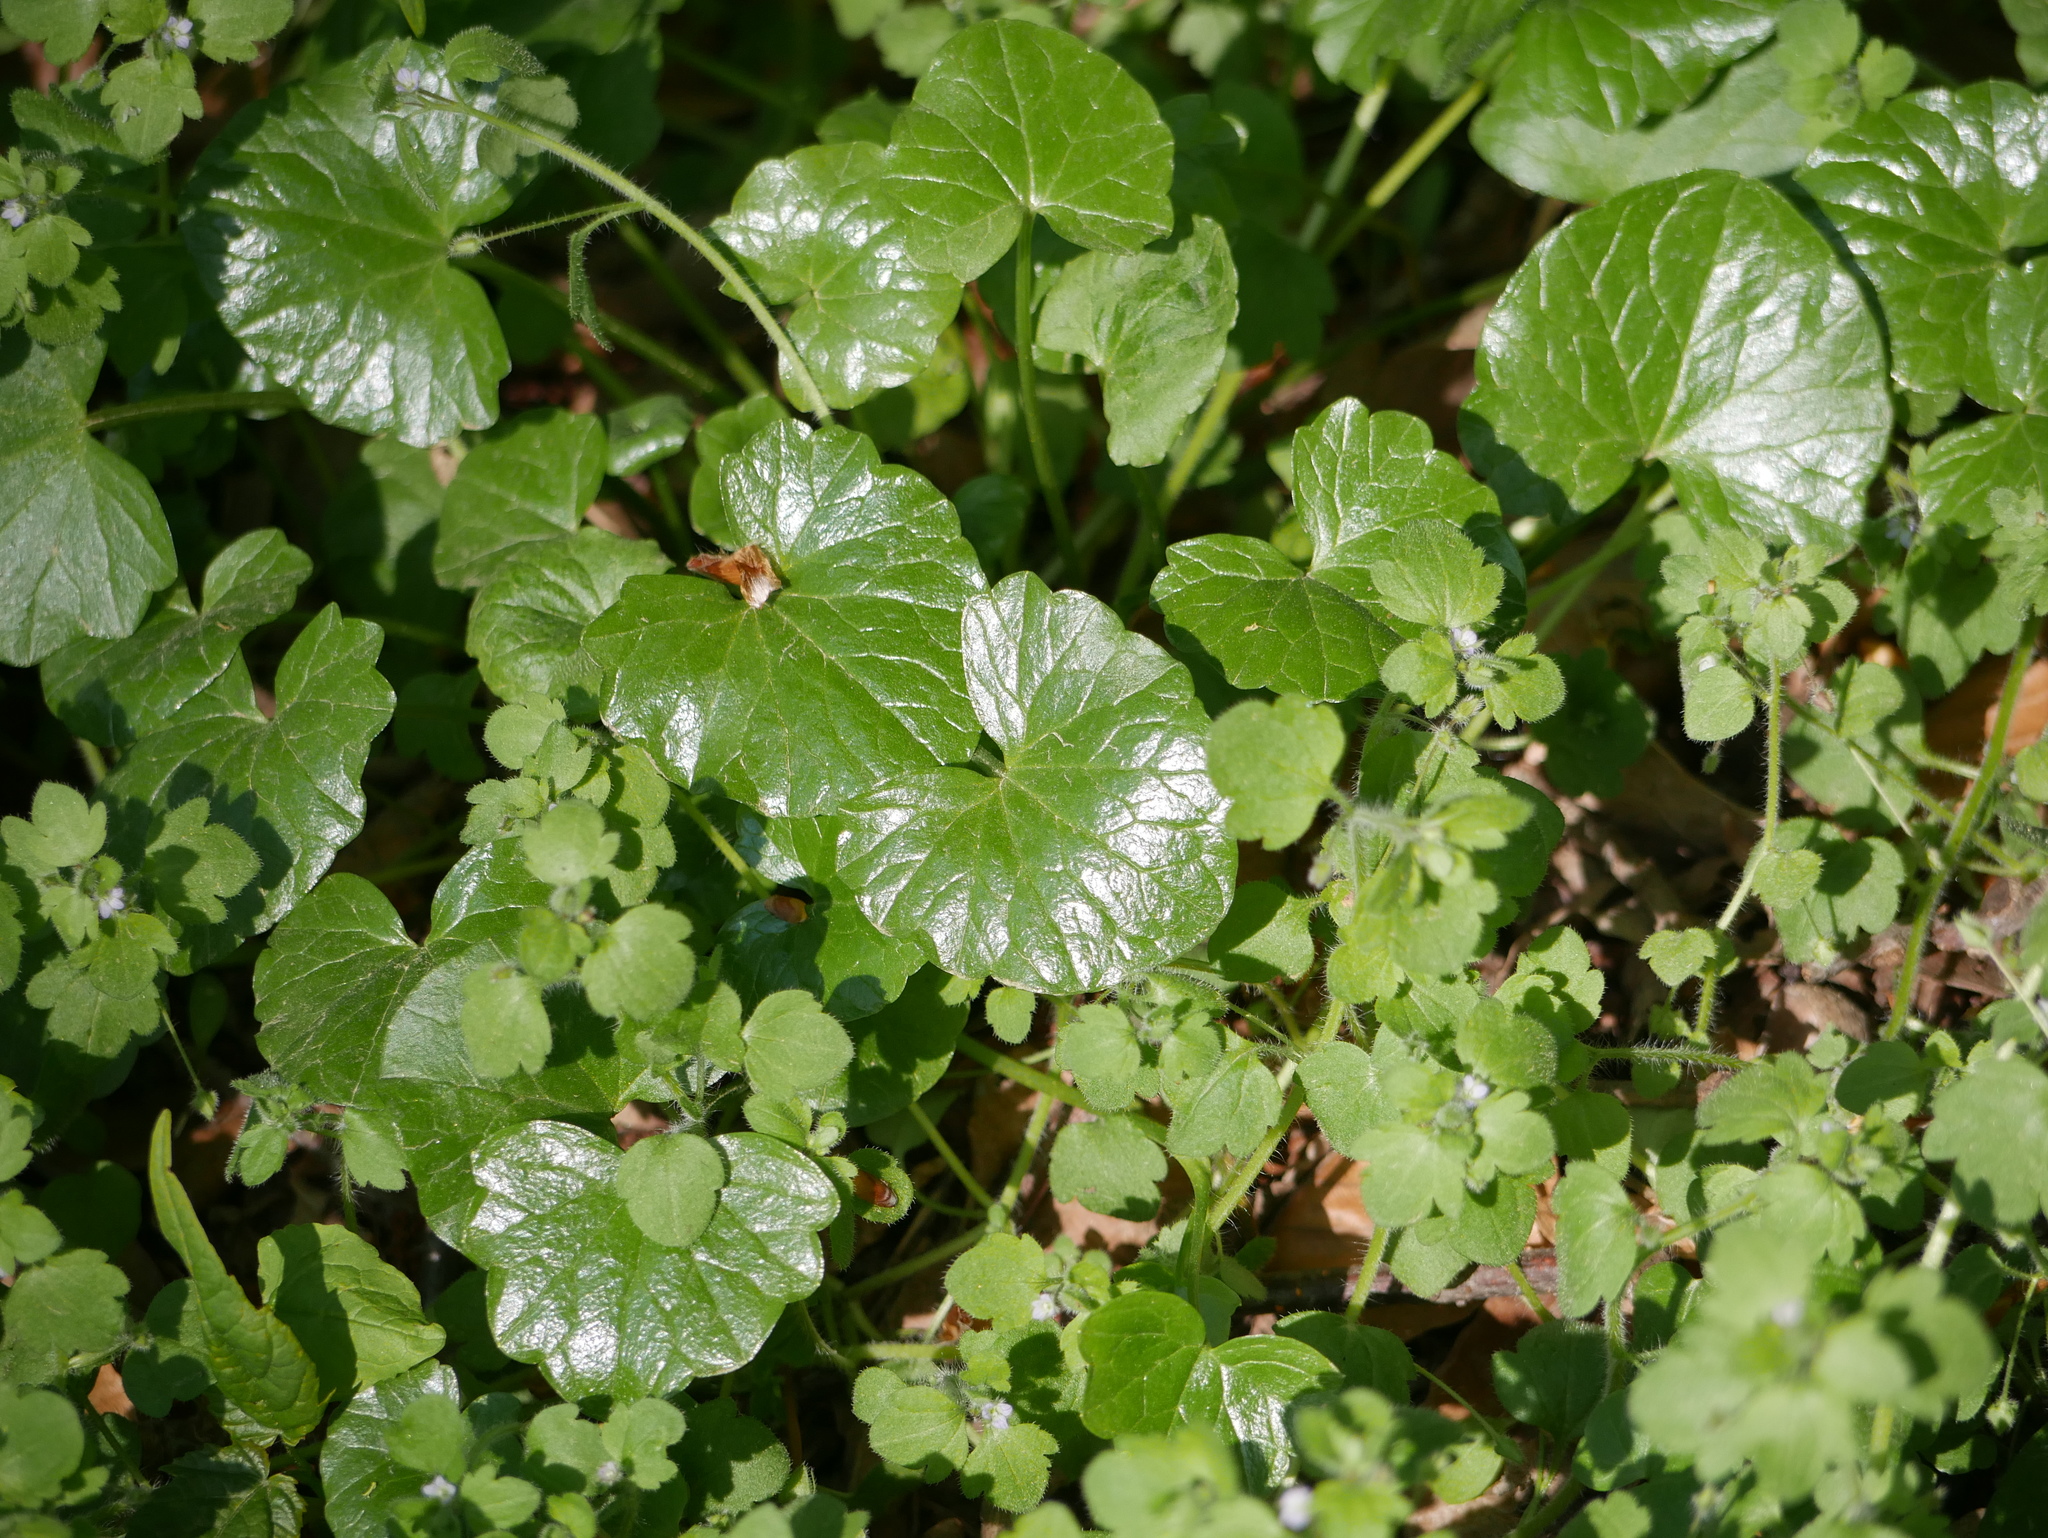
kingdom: Plantae
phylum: Tracheophyta
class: Magnoliopsida
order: Ranunculales
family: Ranunculaceae
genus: Ficaria
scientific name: Ficaria verna
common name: Lesser celandine
